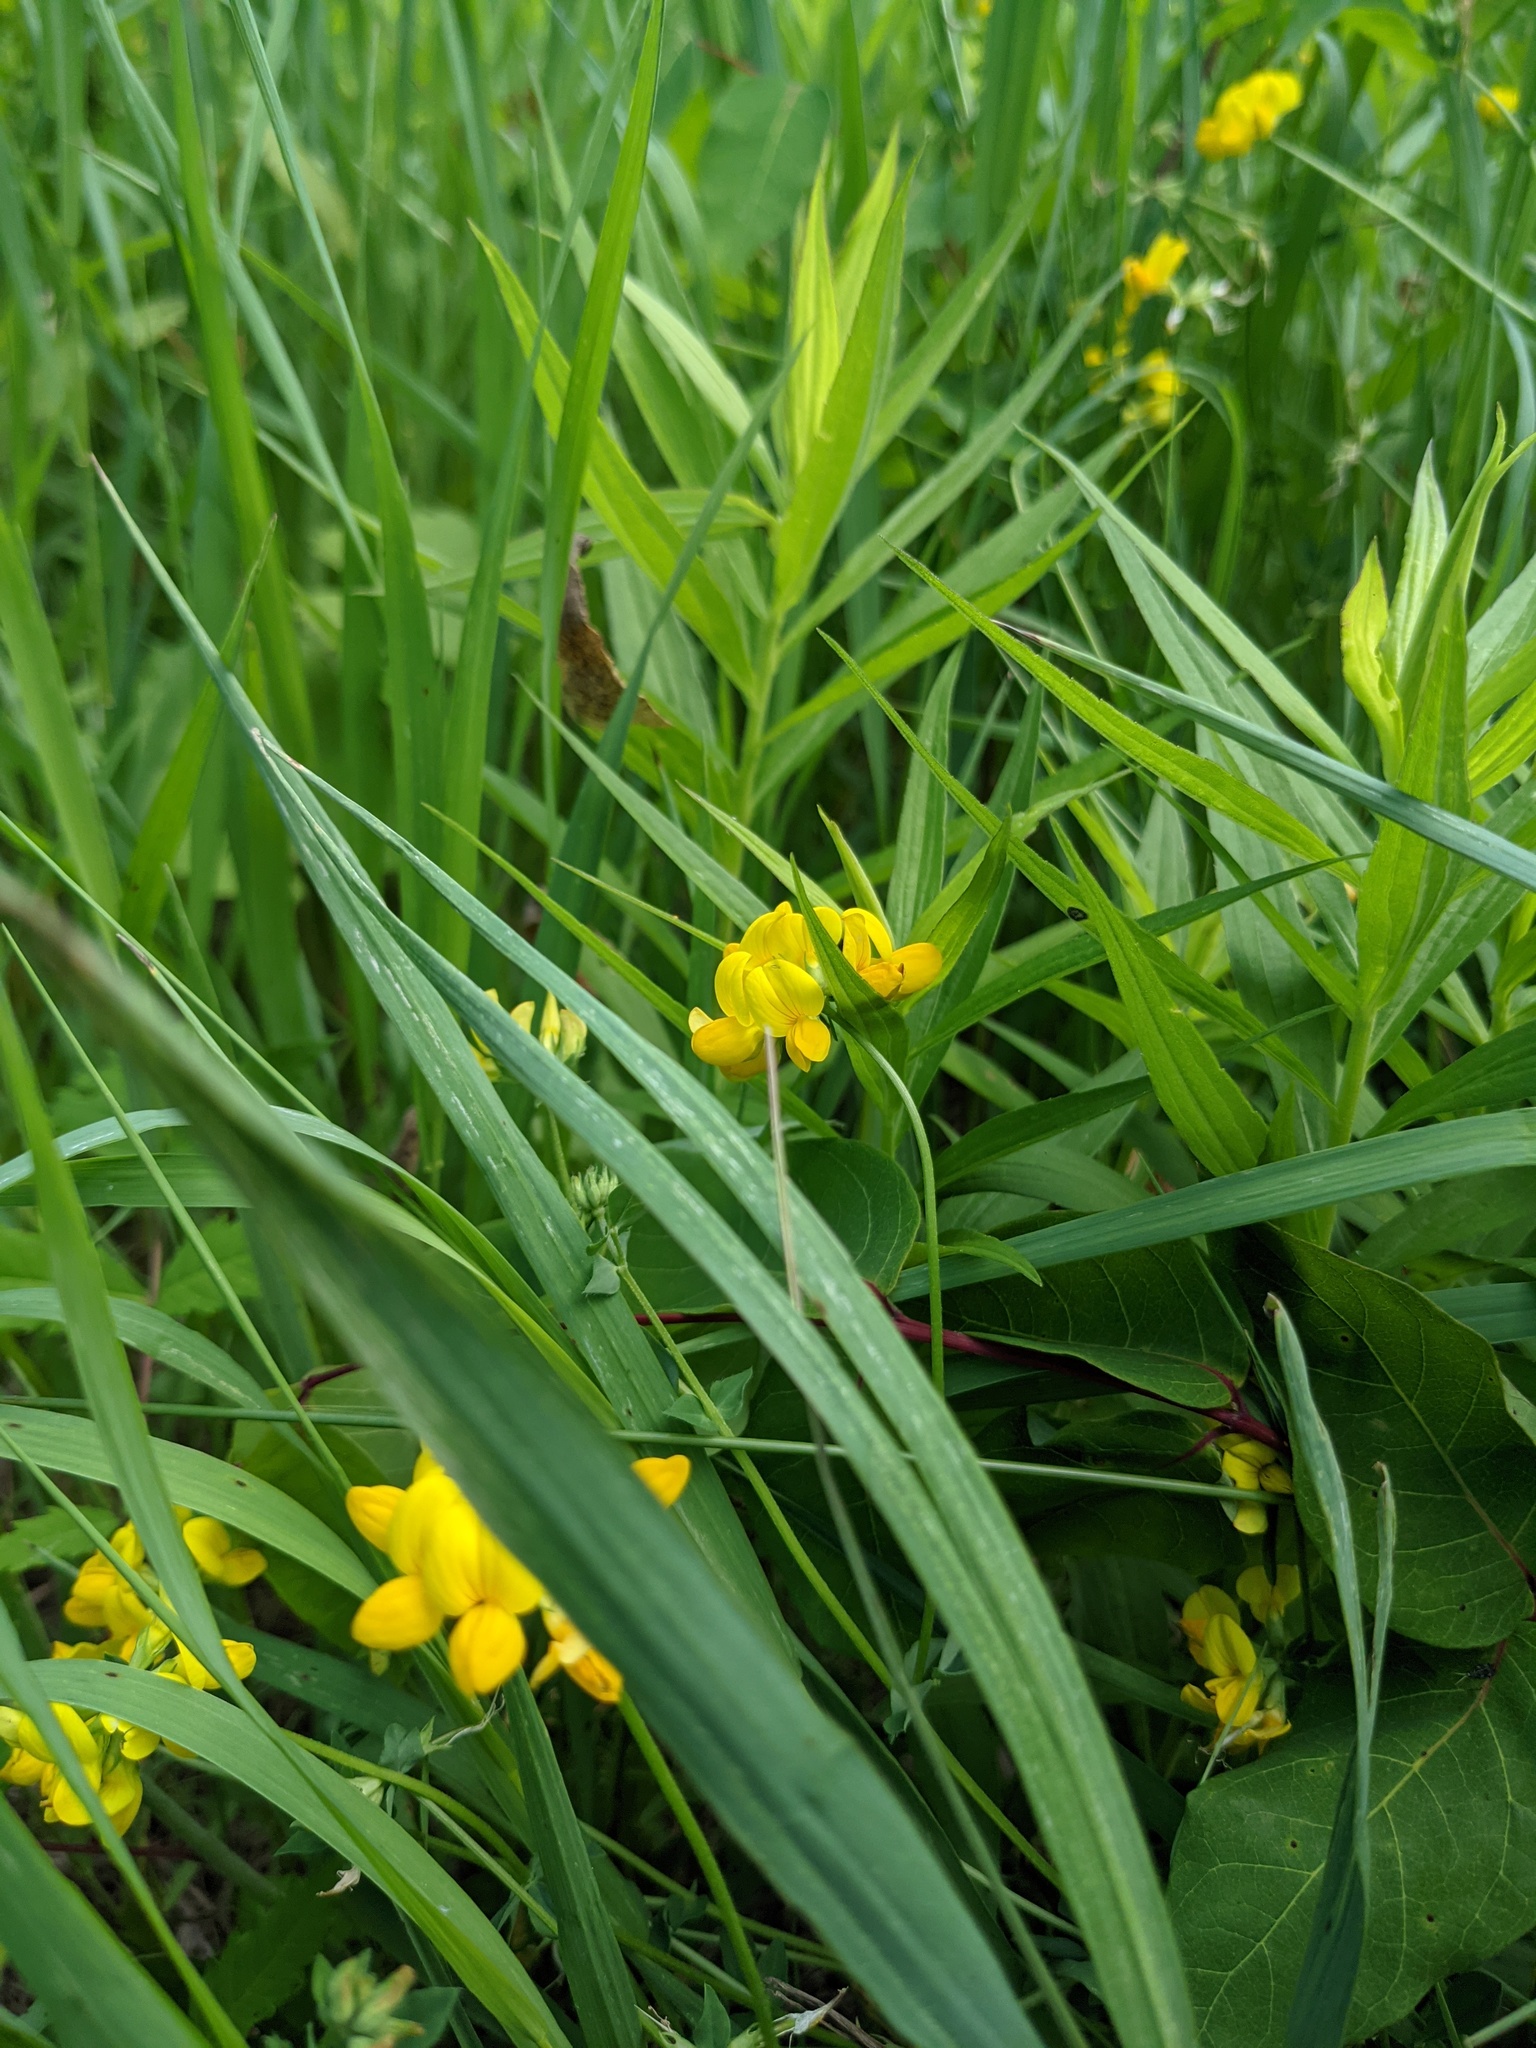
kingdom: Plantae
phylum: Tracheophyta
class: Magnoliopsida
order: Fabales
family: Fabaceae
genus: Lotus
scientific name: Lotus corniculatus
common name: Common bird's-foot-trefoil
